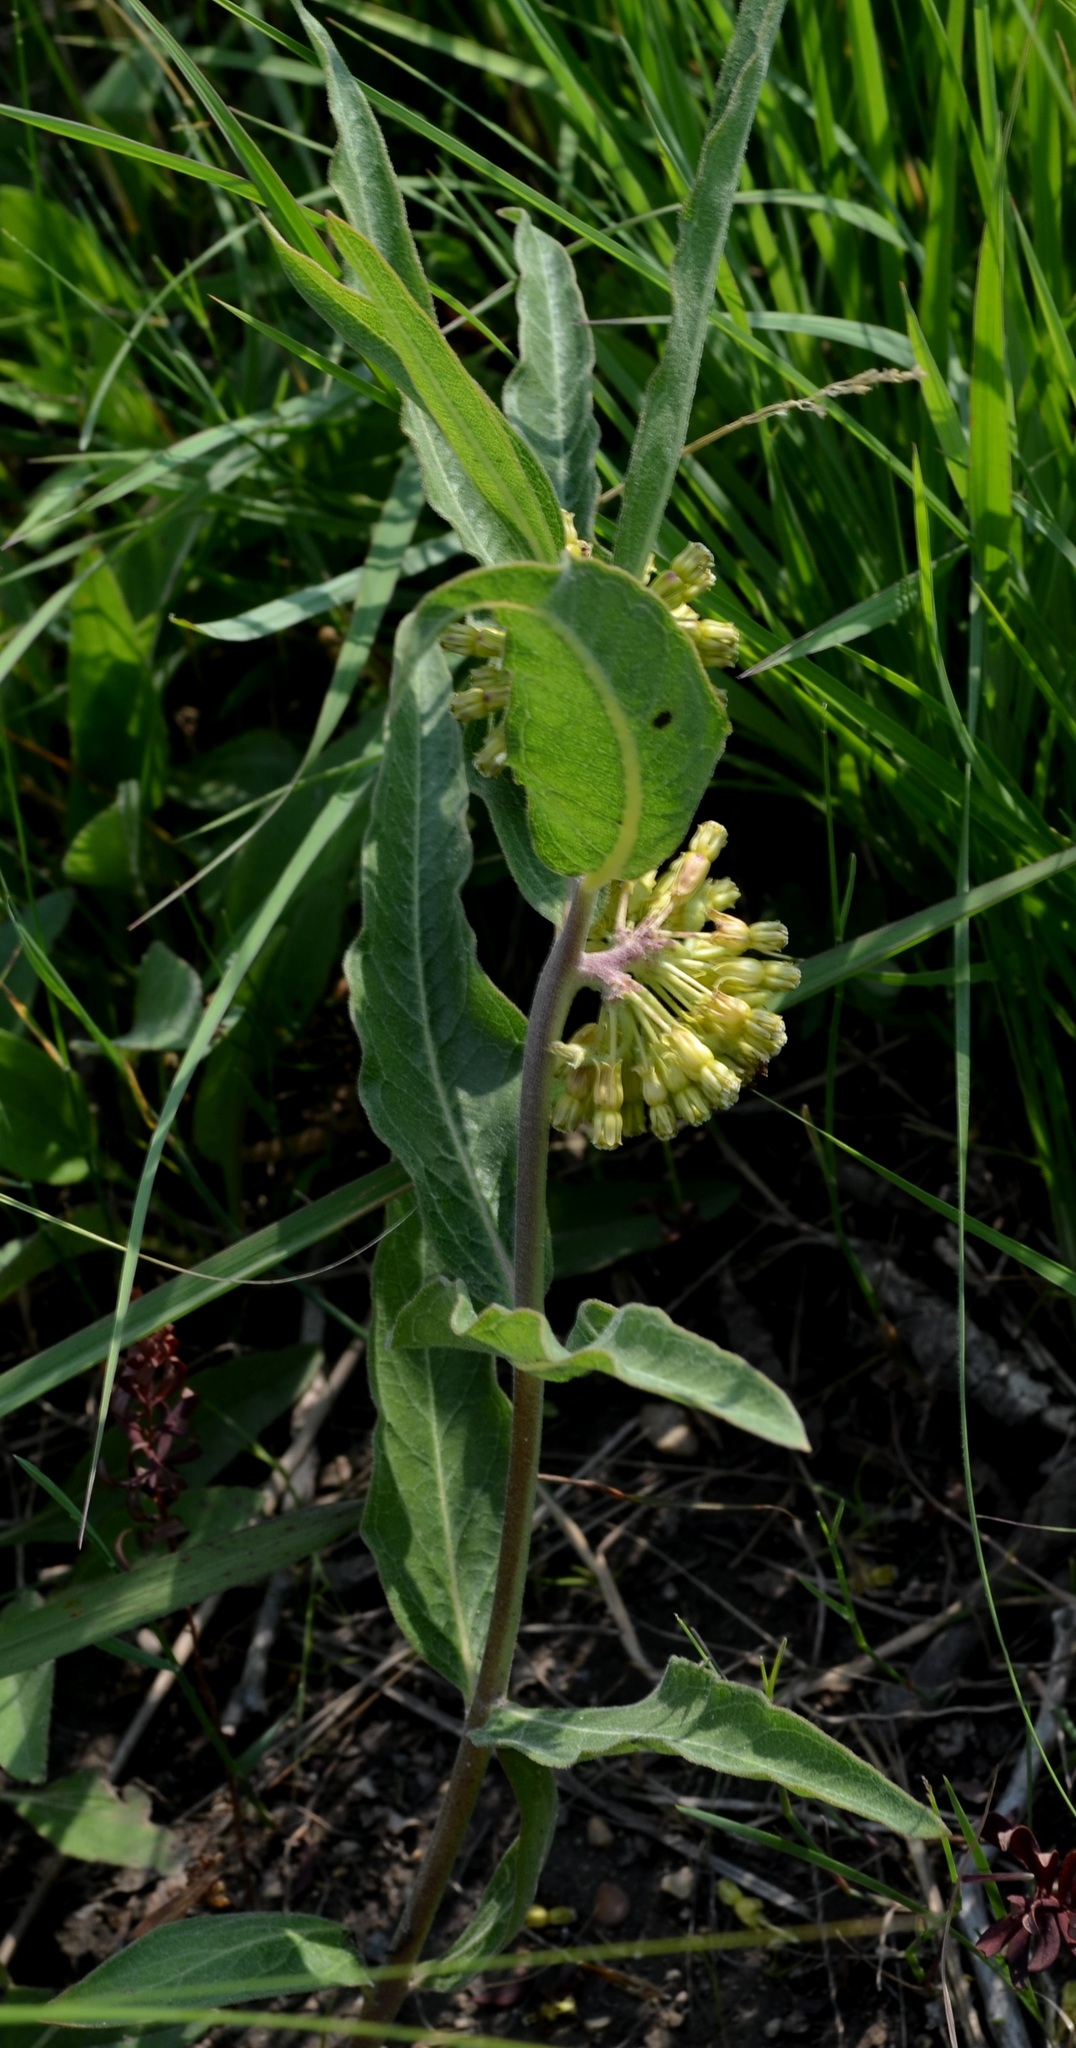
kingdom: Plantae
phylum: Tracheophyta
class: Magnoliopsida
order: Gentianales
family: Apocynaceae
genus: Asclepias
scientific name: Asclepias viridiflora
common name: Green comet milkweed
